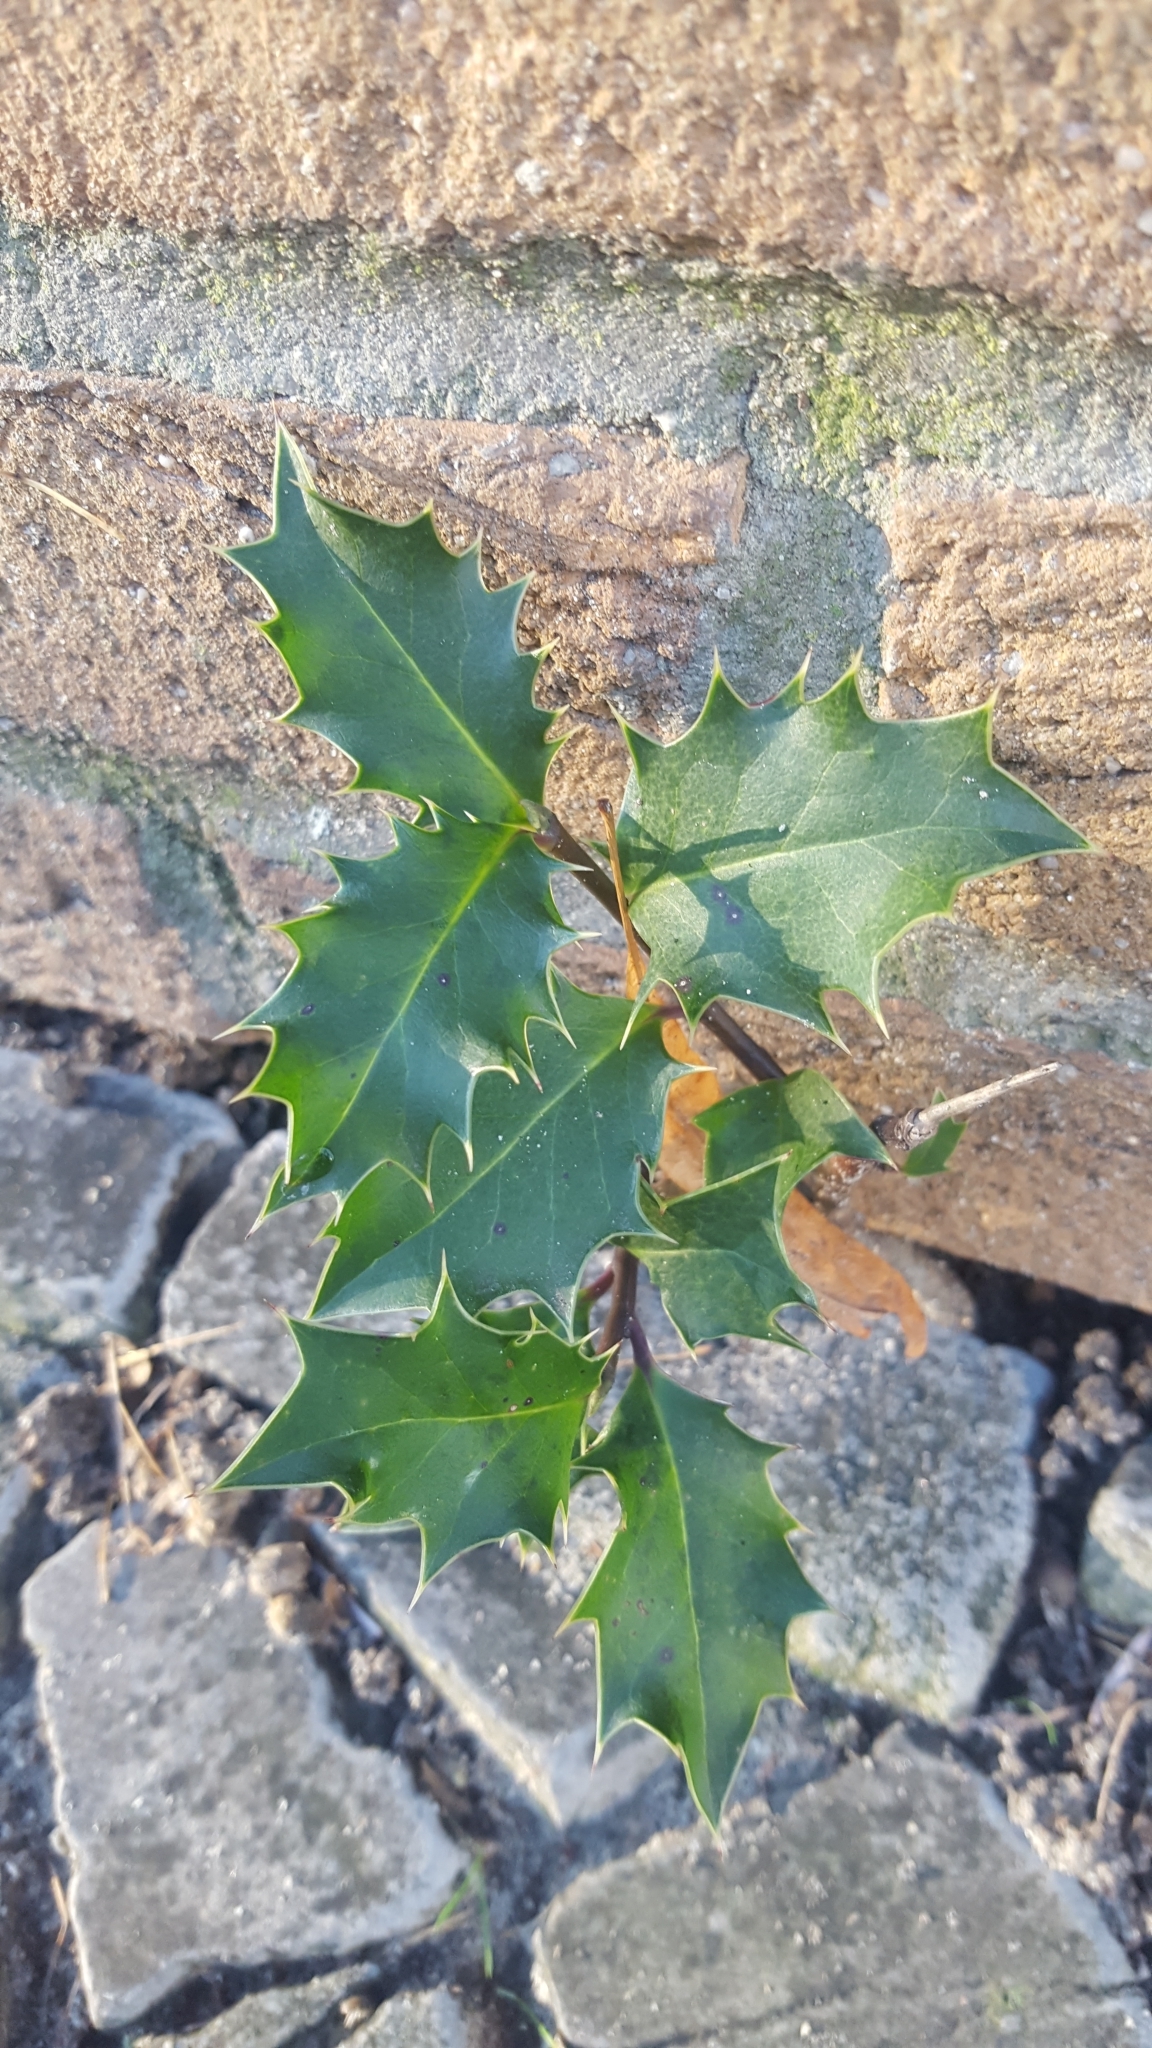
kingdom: Plantae
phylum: Tracheophyta
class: Magnoliopsida
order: Aquifoliales
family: Aquifoliaceae
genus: Ilex
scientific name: Ilex aquifolium
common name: English holly
